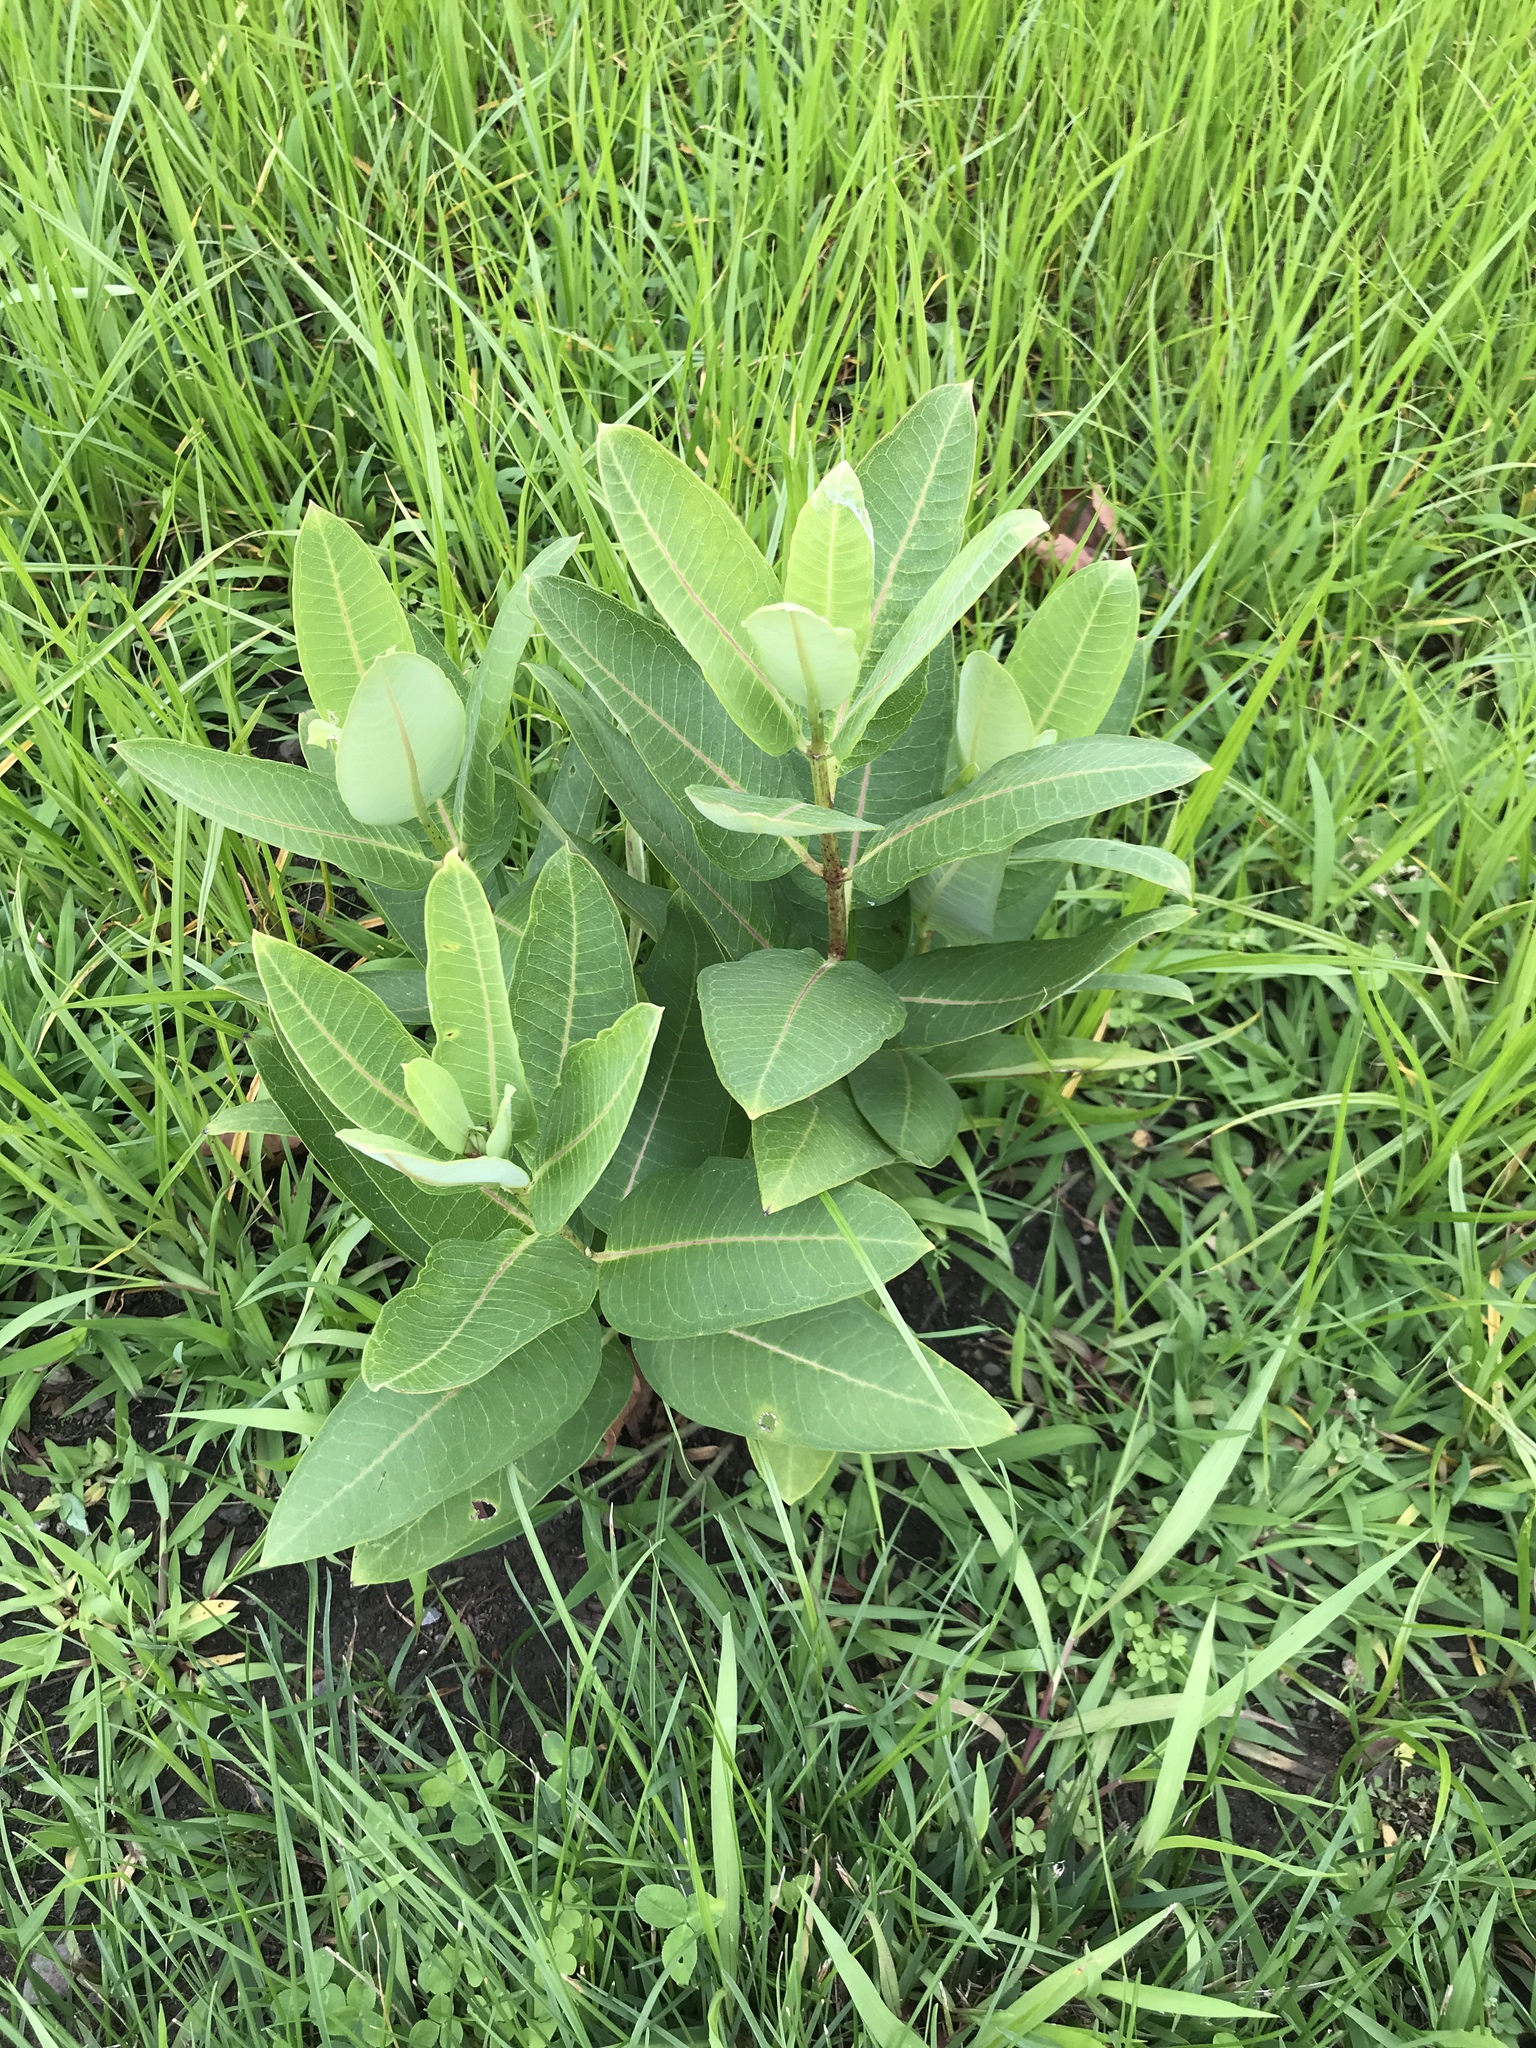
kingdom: Plantae
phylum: Tracheophyta
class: Magnoliopsida
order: Gentianales
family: Apocynaceae
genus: Asclepias
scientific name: Asclepias syriaca
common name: Common milkweed
